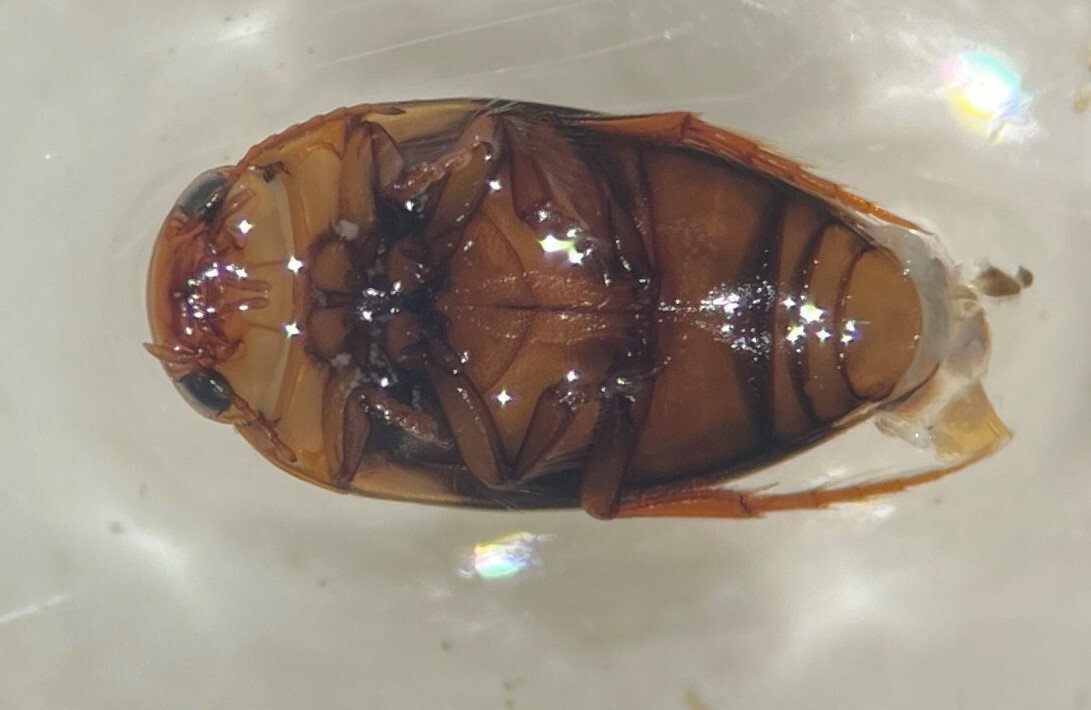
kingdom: Animalia
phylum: Arthropoda
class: Insecta
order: Coleoptera
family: Dytiscidae
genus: Heterosternuta
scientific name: Heterosternuta pulchra
